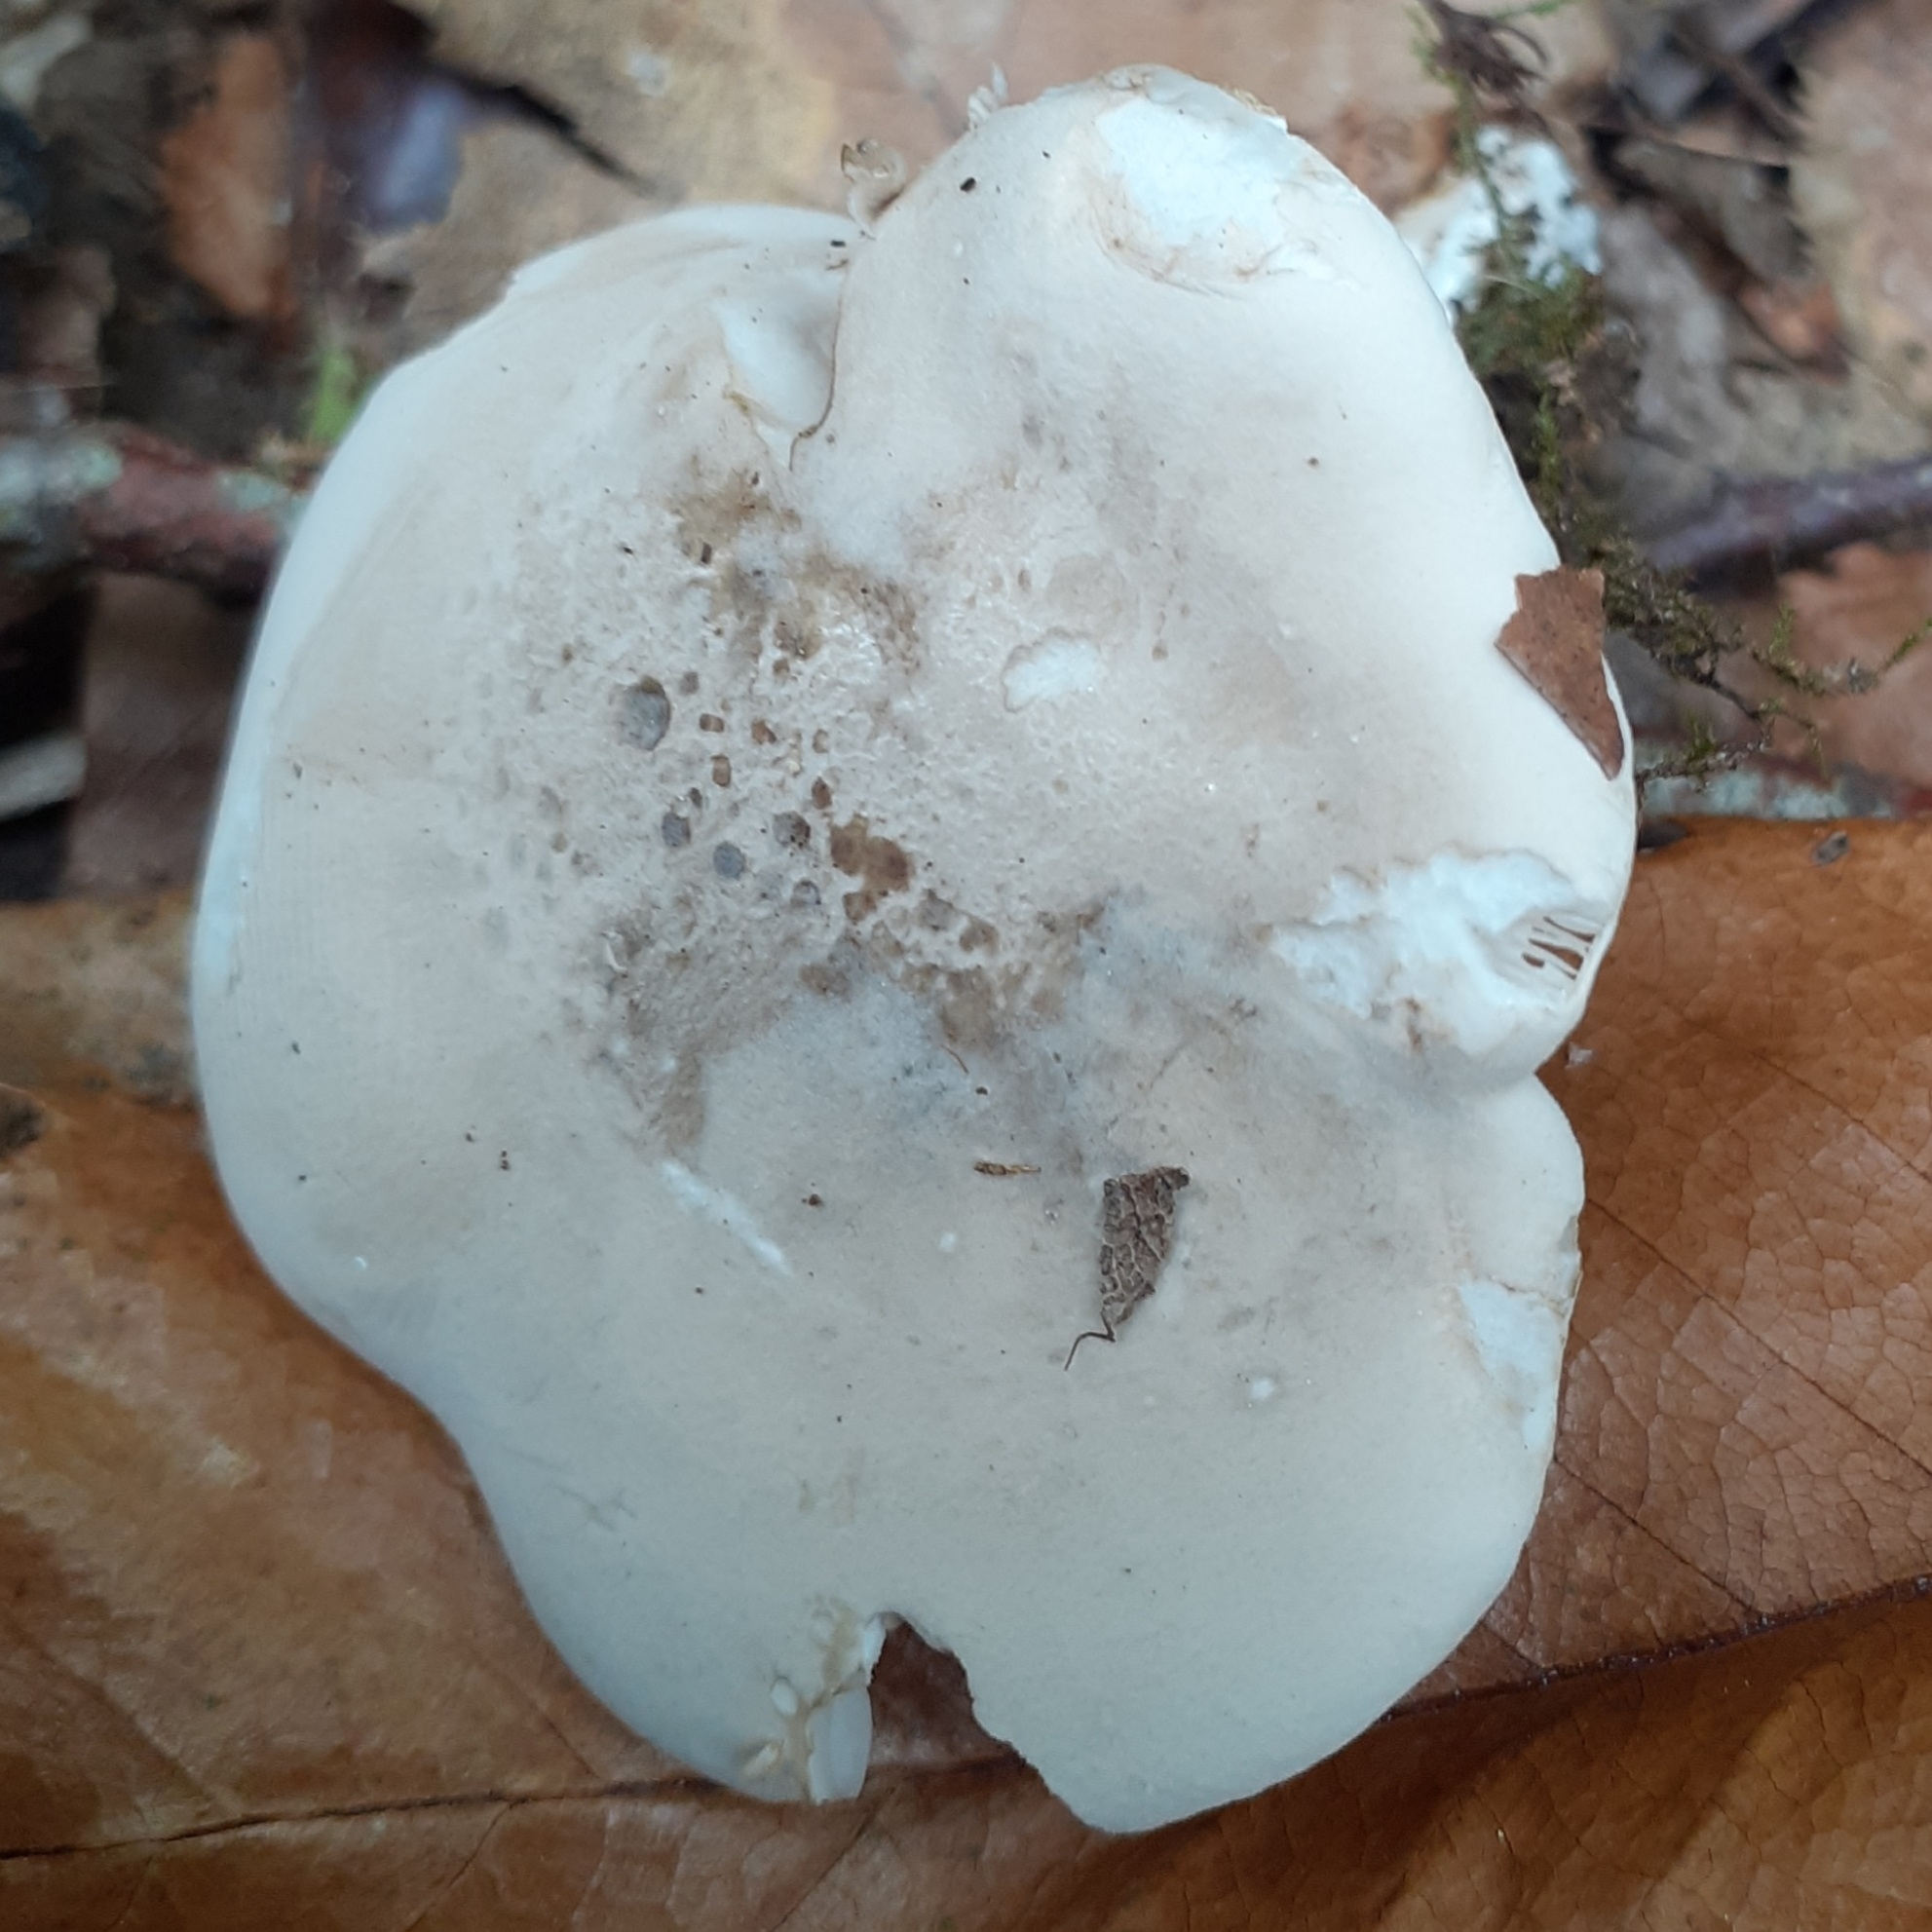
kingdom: Fungi
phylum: Basidiomycota
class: Agaricomycetes
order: Agaricales
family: Entolomataceae
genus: Clitopilus
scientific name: Clitopilus prunulus
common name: The miller
